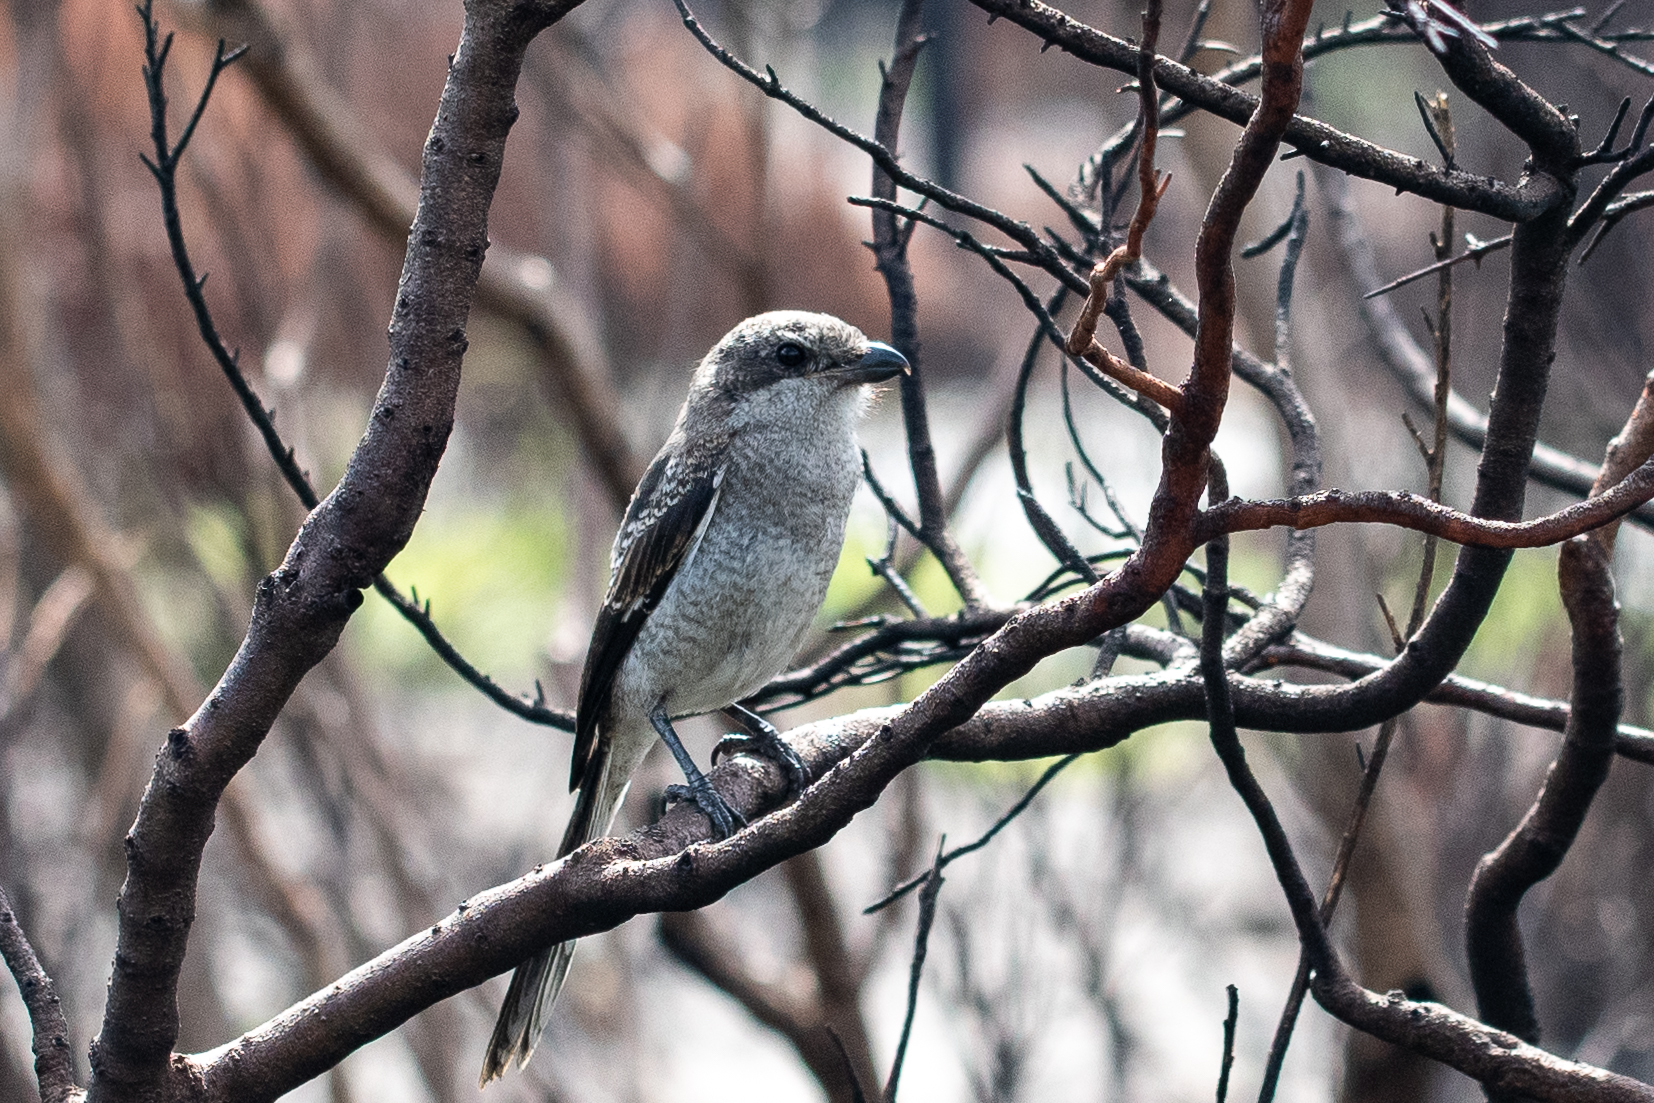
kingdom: Animalia
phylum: Chordata
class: Aves
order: Passeriformes
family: Laniidae
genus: Lanius
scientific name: Lanius collaris
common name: Southern fiscal
